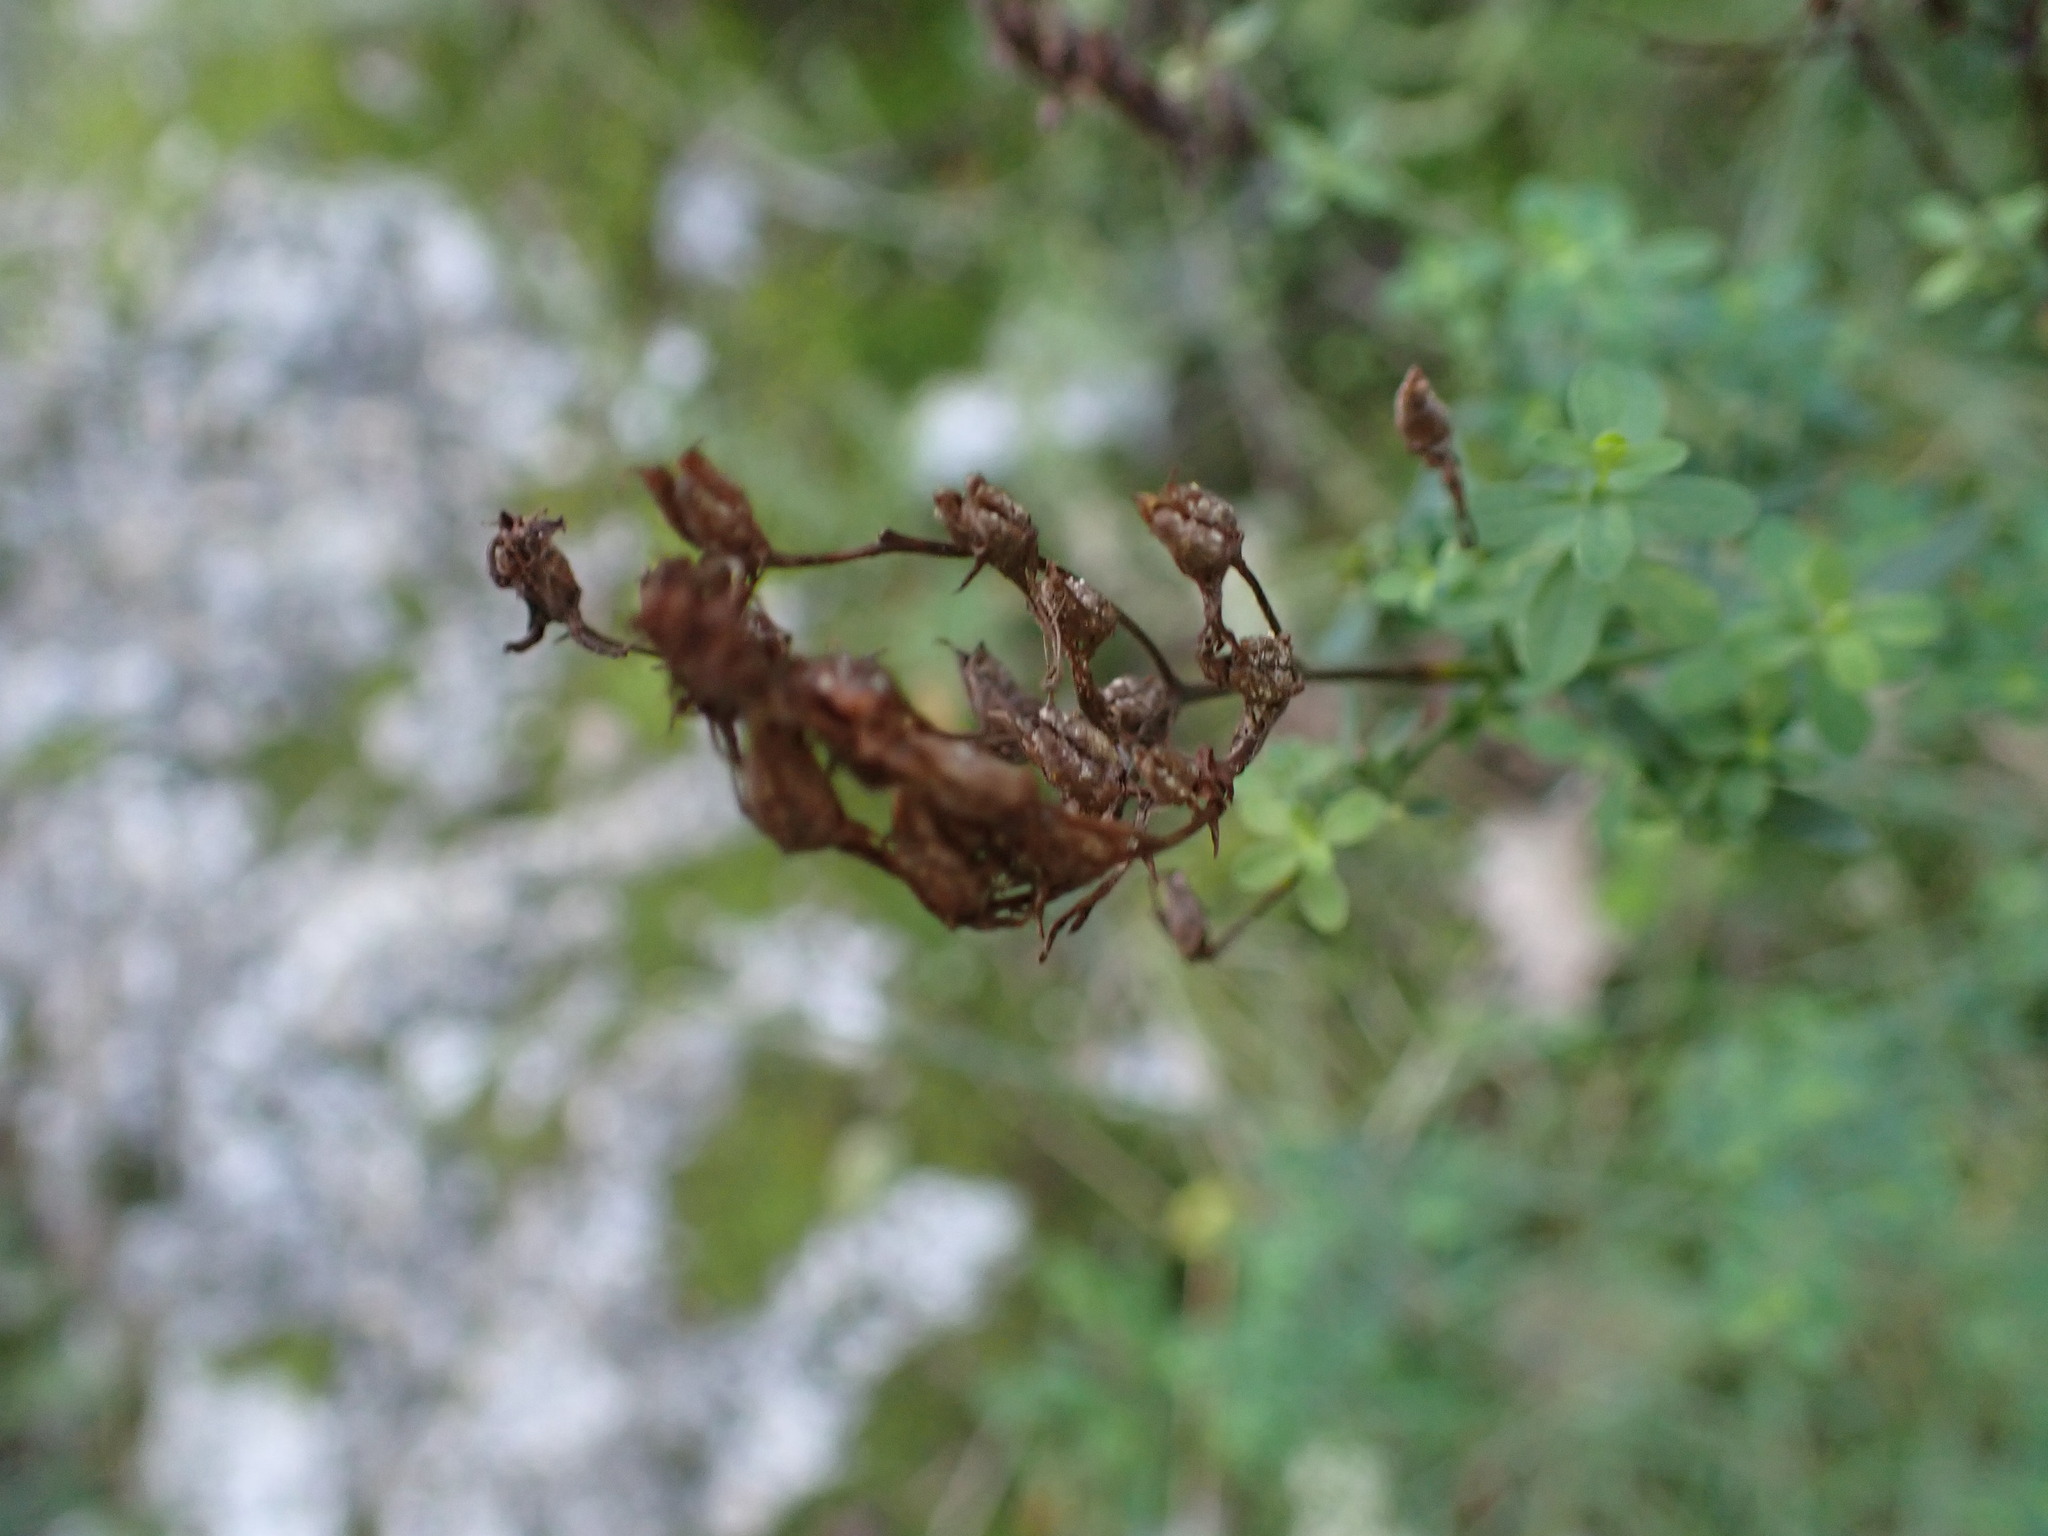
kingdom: Plantae
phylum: Tracheophyta
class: Magnoliopsida
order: Malpighiales
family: Hypericaceae
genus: Hypericum
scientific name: Hypericum perforatum
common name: Common st. johnswort
